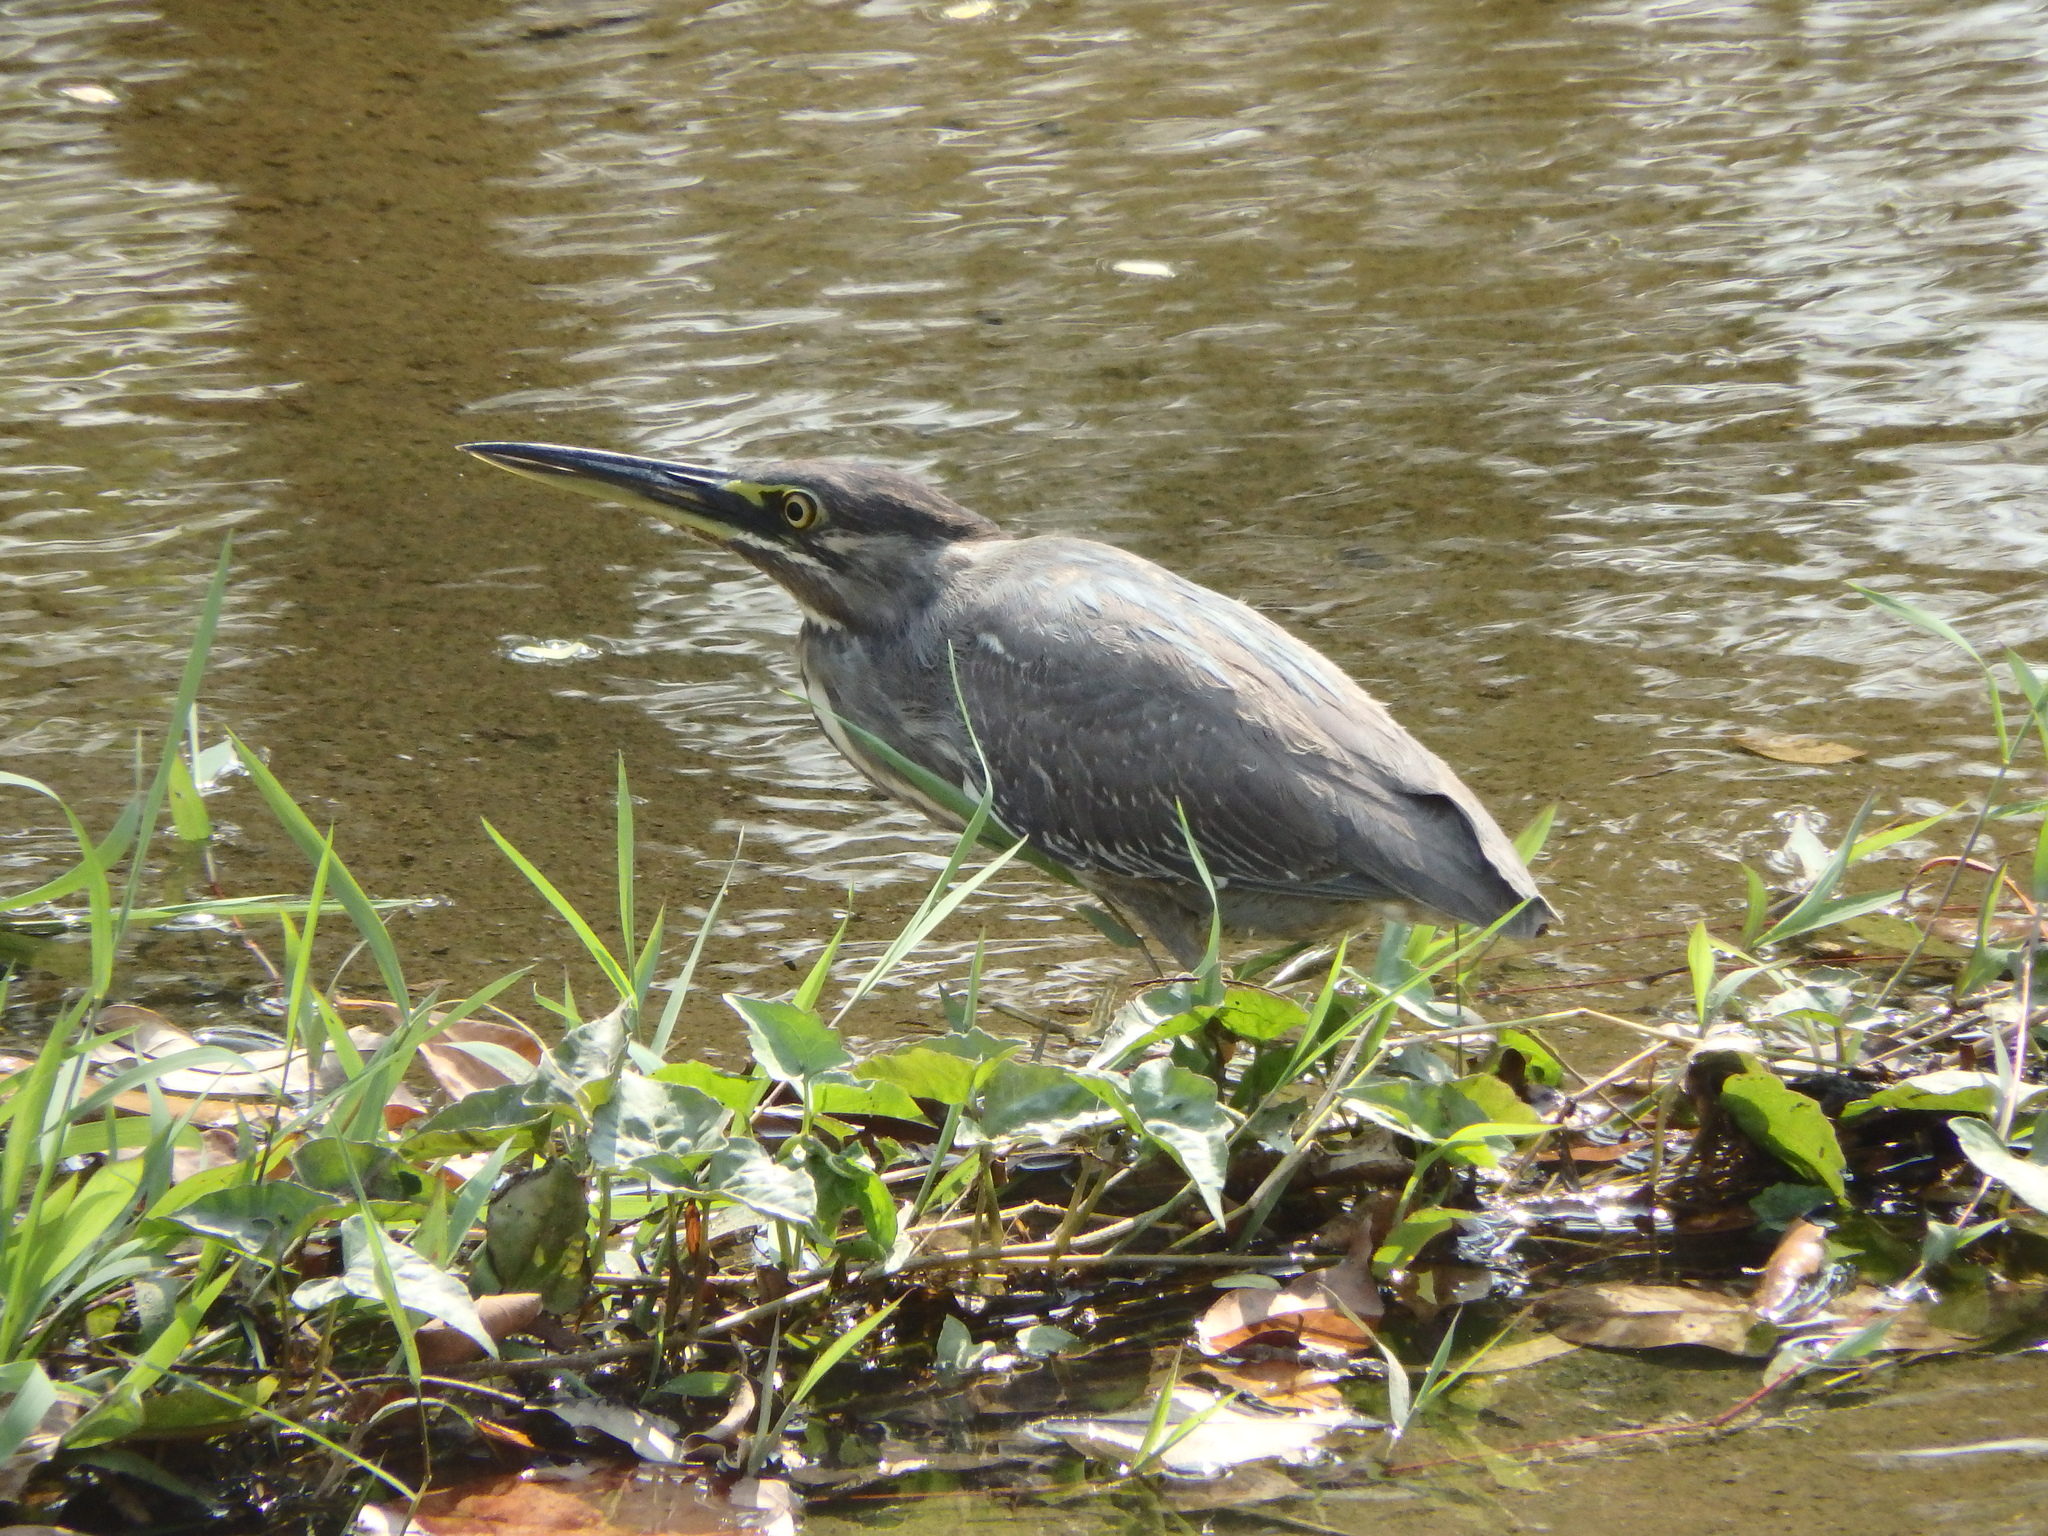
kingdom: Animalia
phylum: Chordata
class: Aves
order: Pelecaniformes
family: Ardeidae
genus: Butorides
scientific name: Butorides striata
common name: Striated heron
